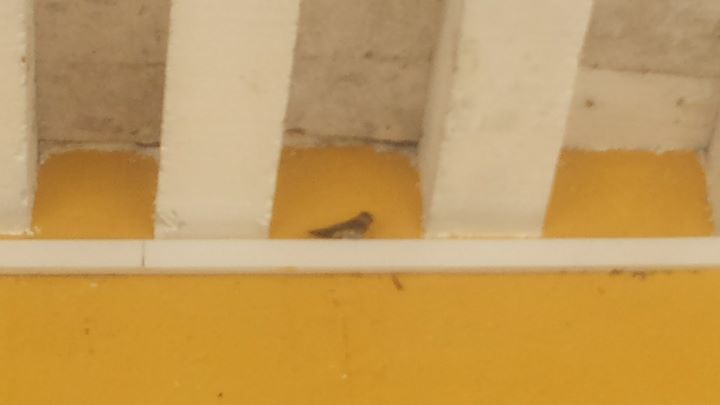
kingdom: Animalia
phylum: Chordata
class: Aves
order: Passeriformes
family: Hirundinidae
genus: Petrochelidon
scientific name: Petrochelidon fulva
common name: Cave swallow
